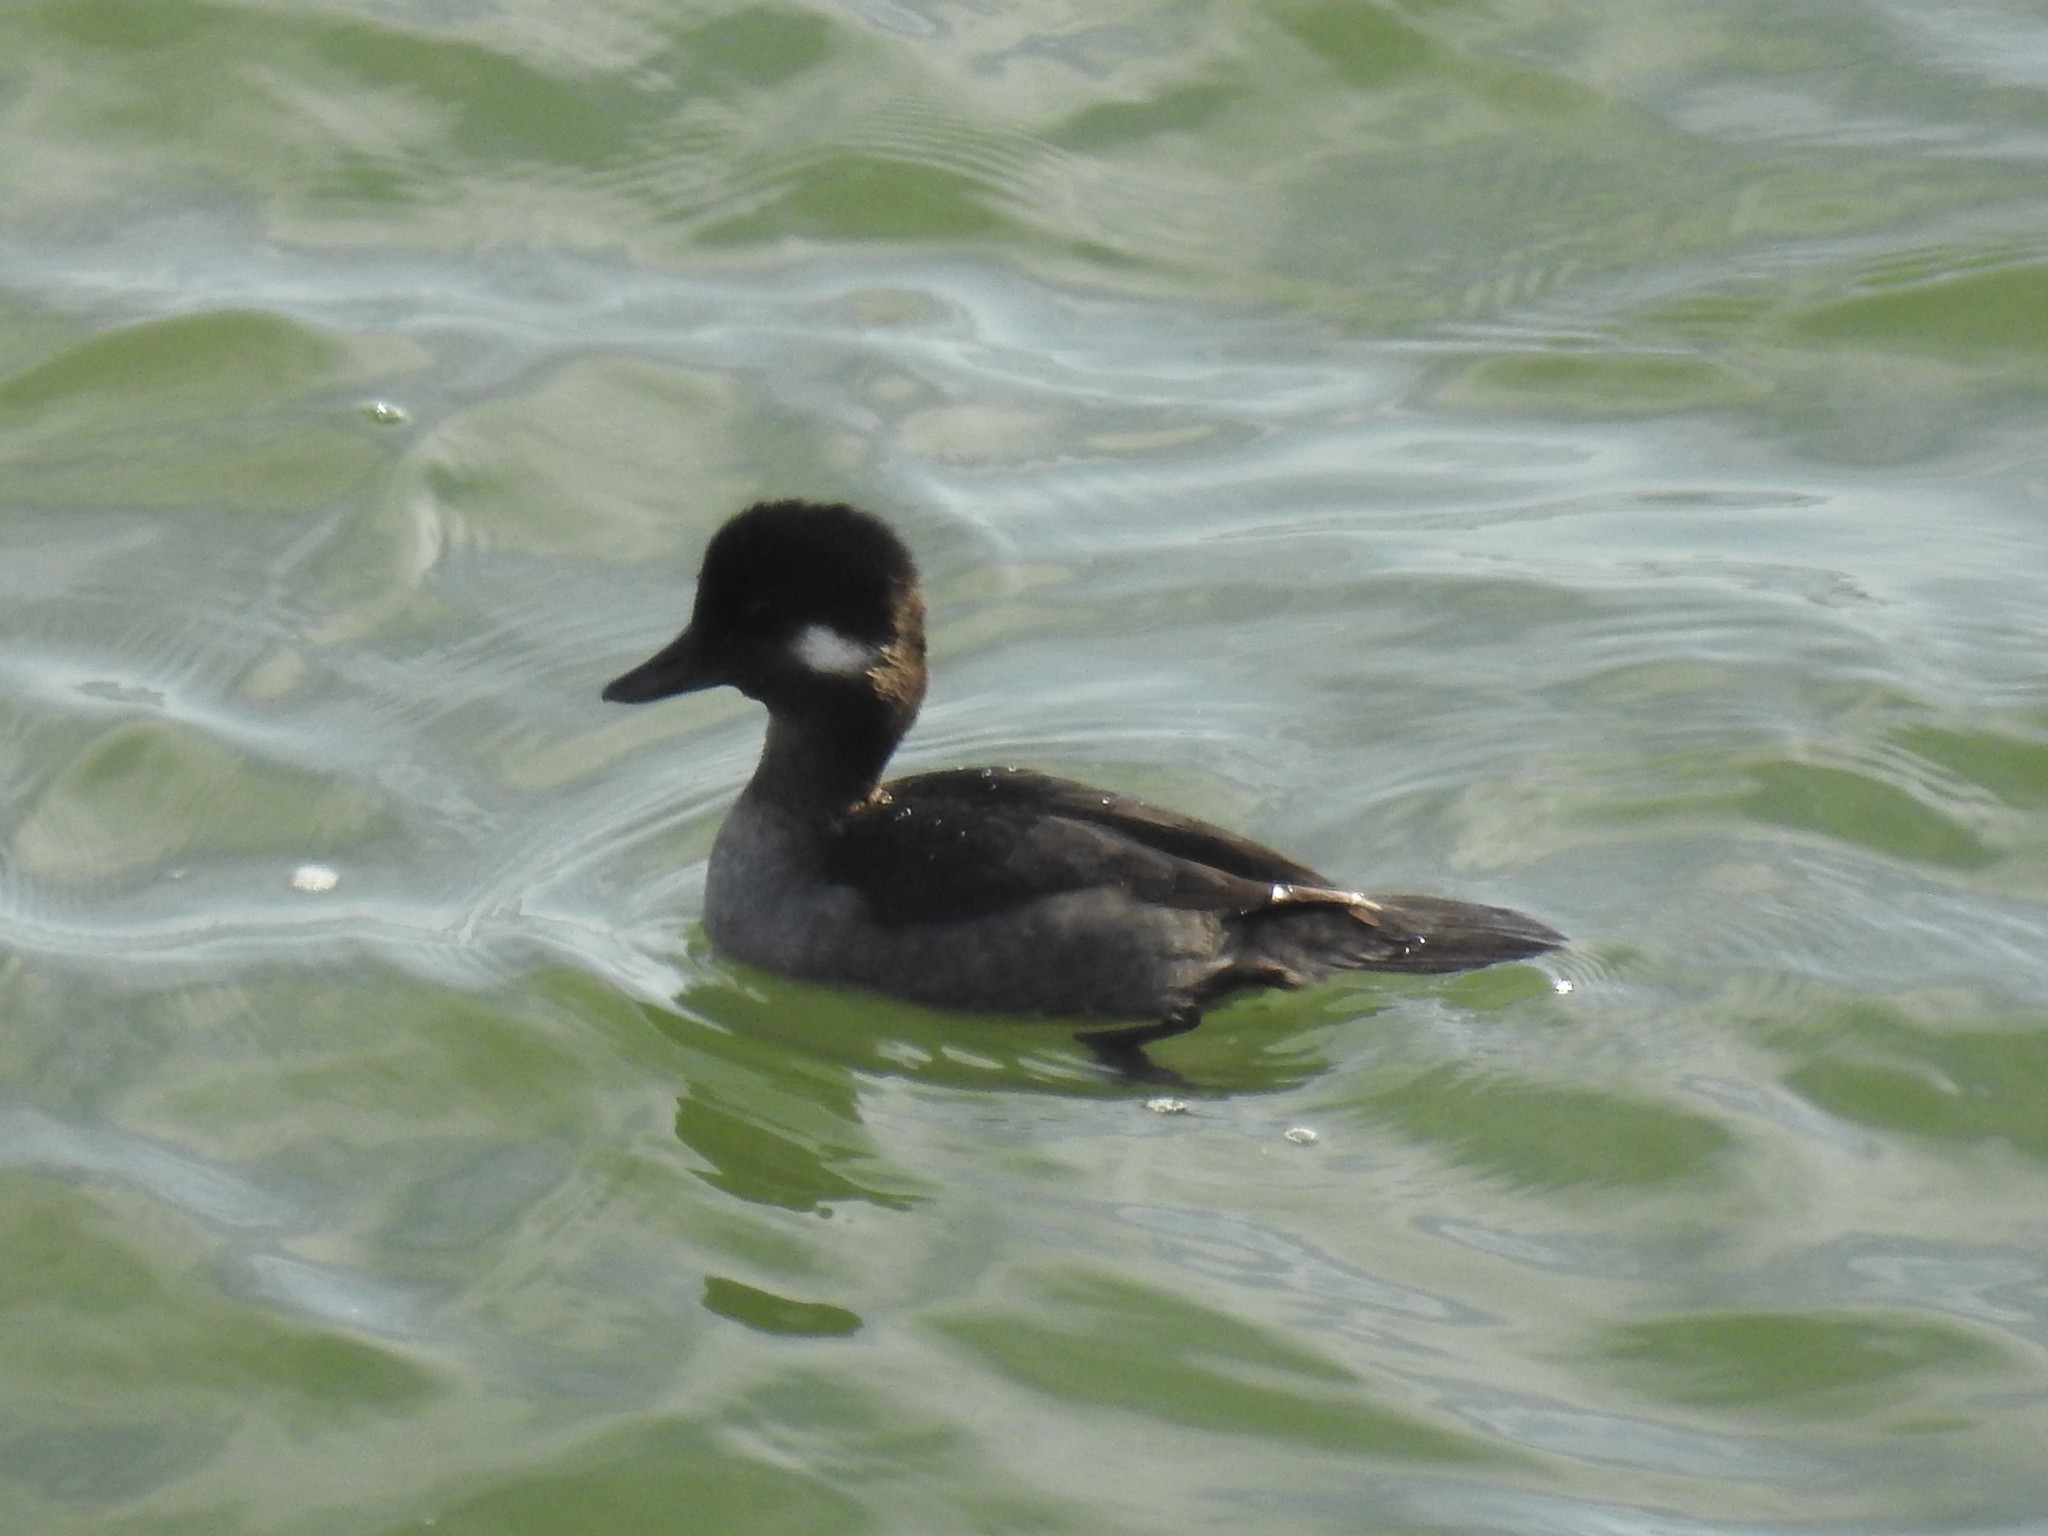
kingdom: Animalia
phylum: Chordata
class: Aves
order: Anseriformes
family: Anatidae
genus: Bucephala
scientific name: Bucephala albeola
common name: Bufflehead
